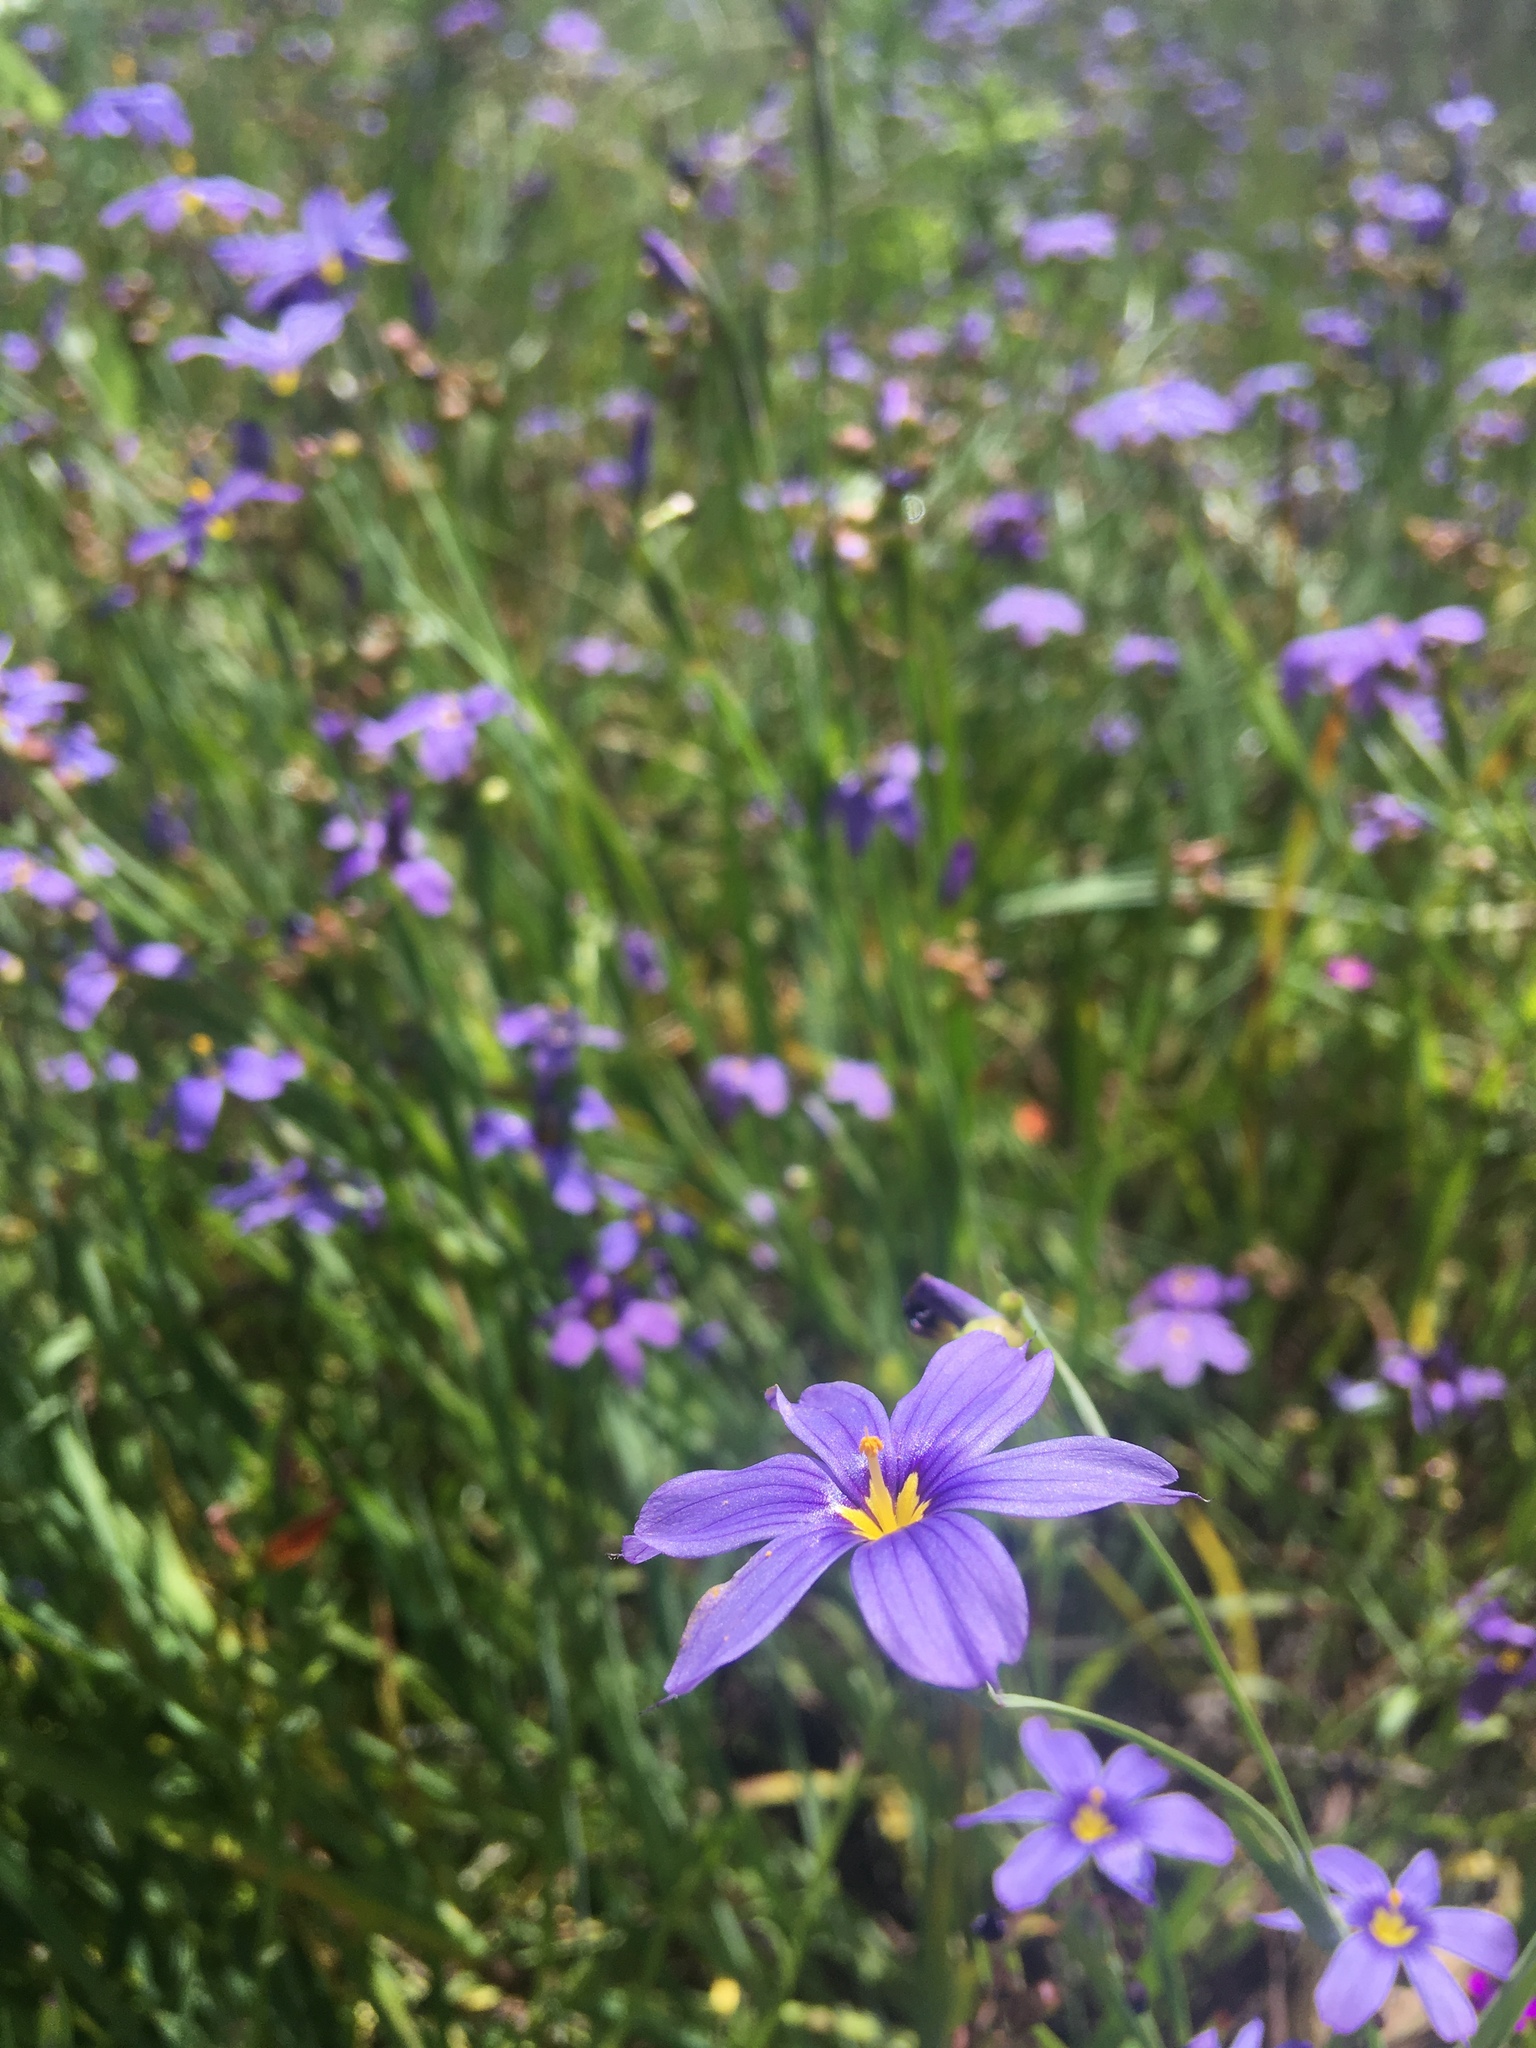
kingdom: Plantae
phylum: Tracheophyta
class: Liliopsida
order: Asparagales
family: Iridaceae
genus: Sisyrinchium
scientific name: Sisyrinchium bellum
